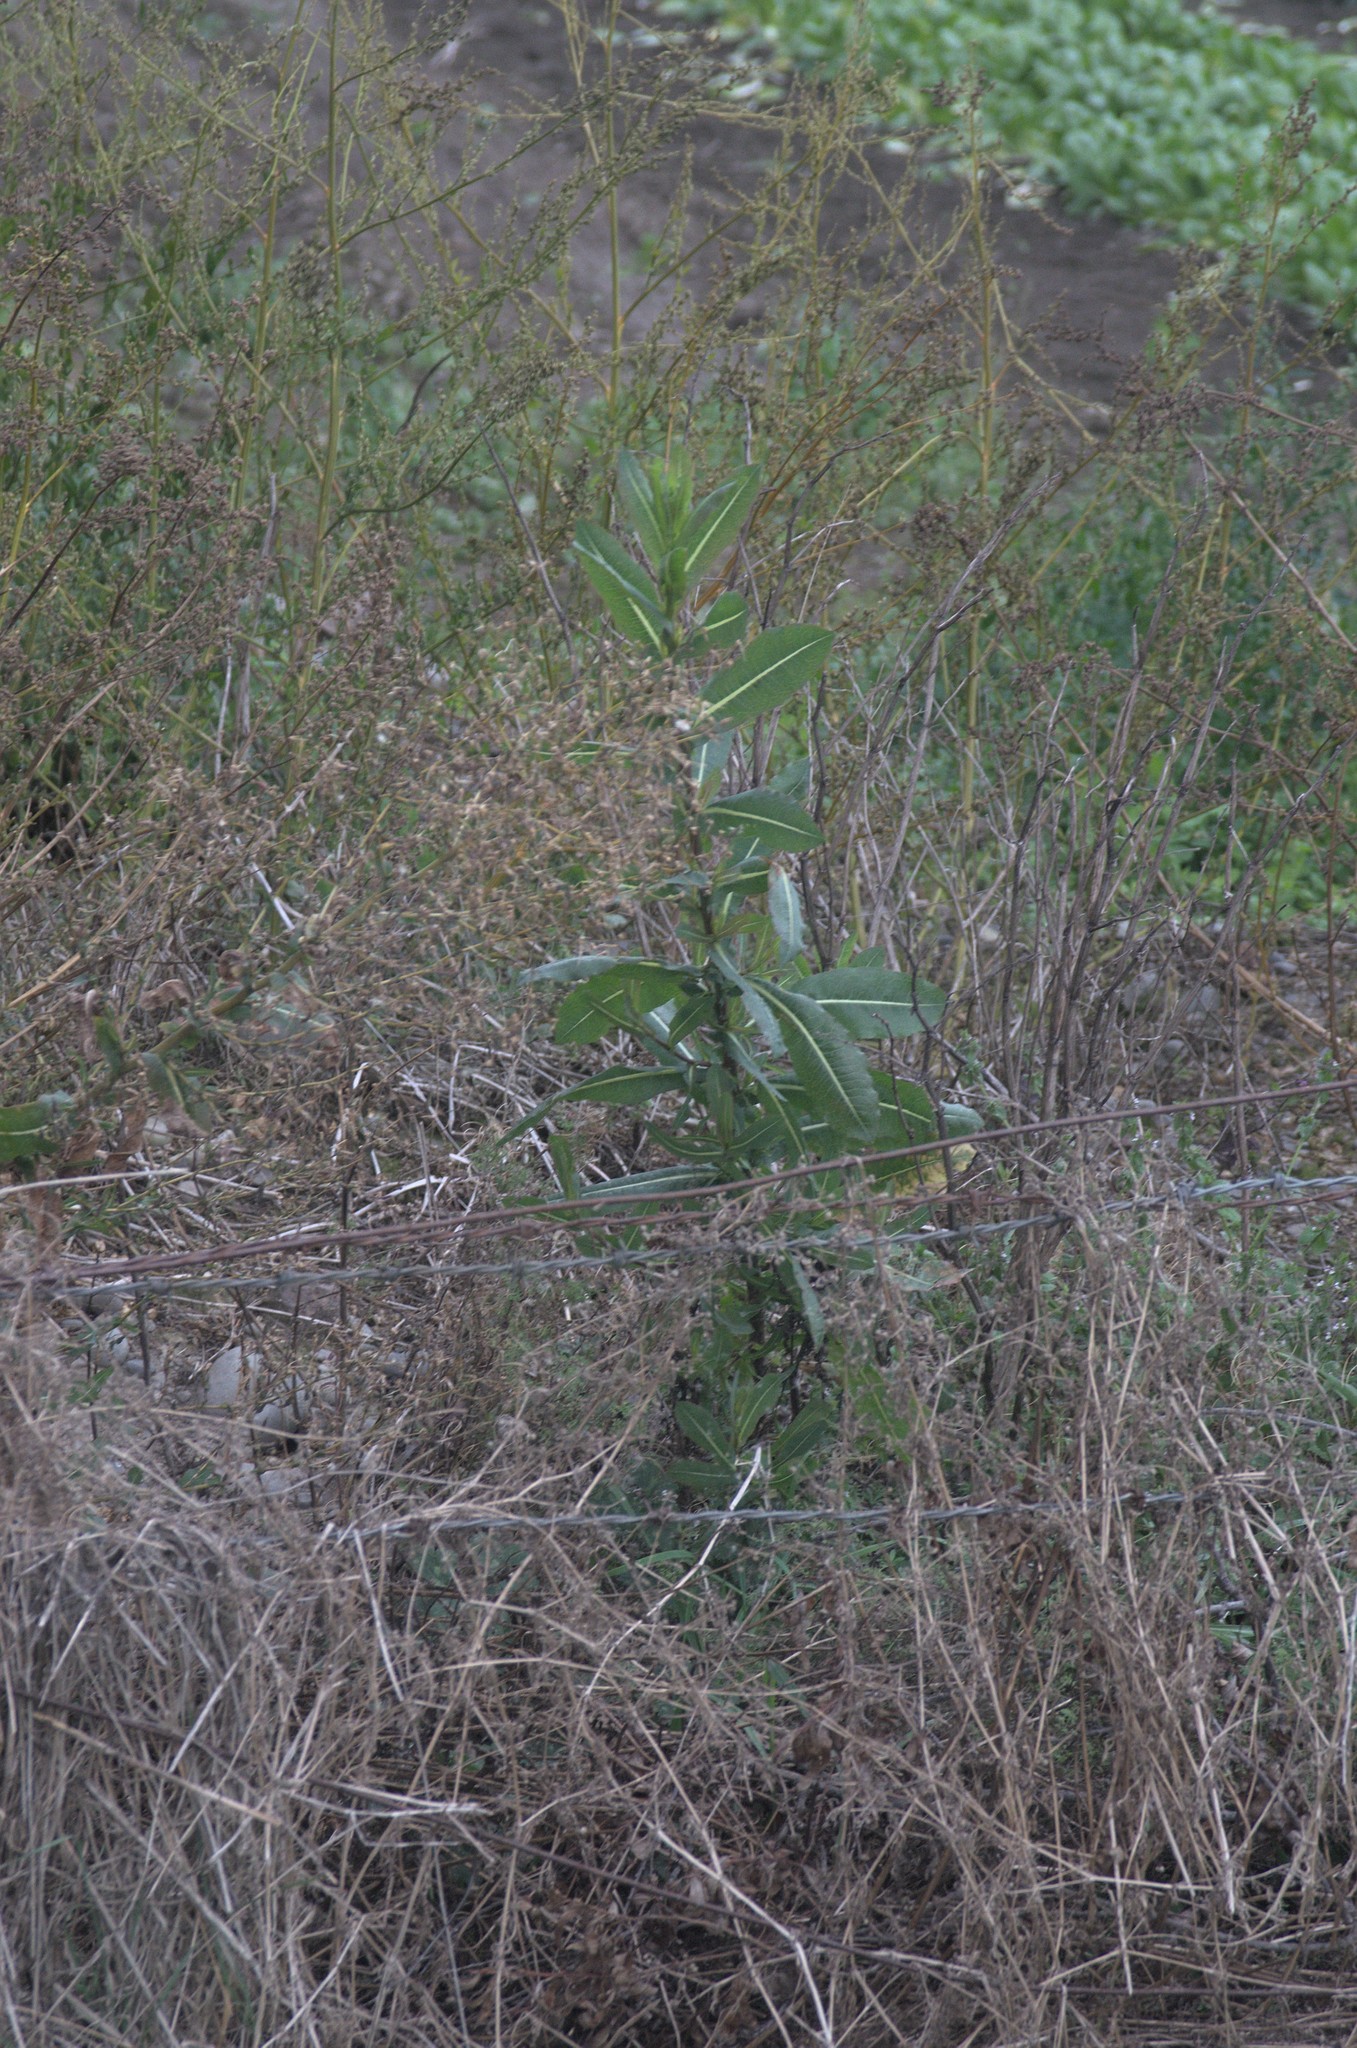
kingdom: Plantae
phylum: Tracheophyta
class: Magnoliopsida
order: Asterales
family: Asteraceae
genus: Lactuca
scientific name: Lactuca serriola
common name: Prickly lettuce
